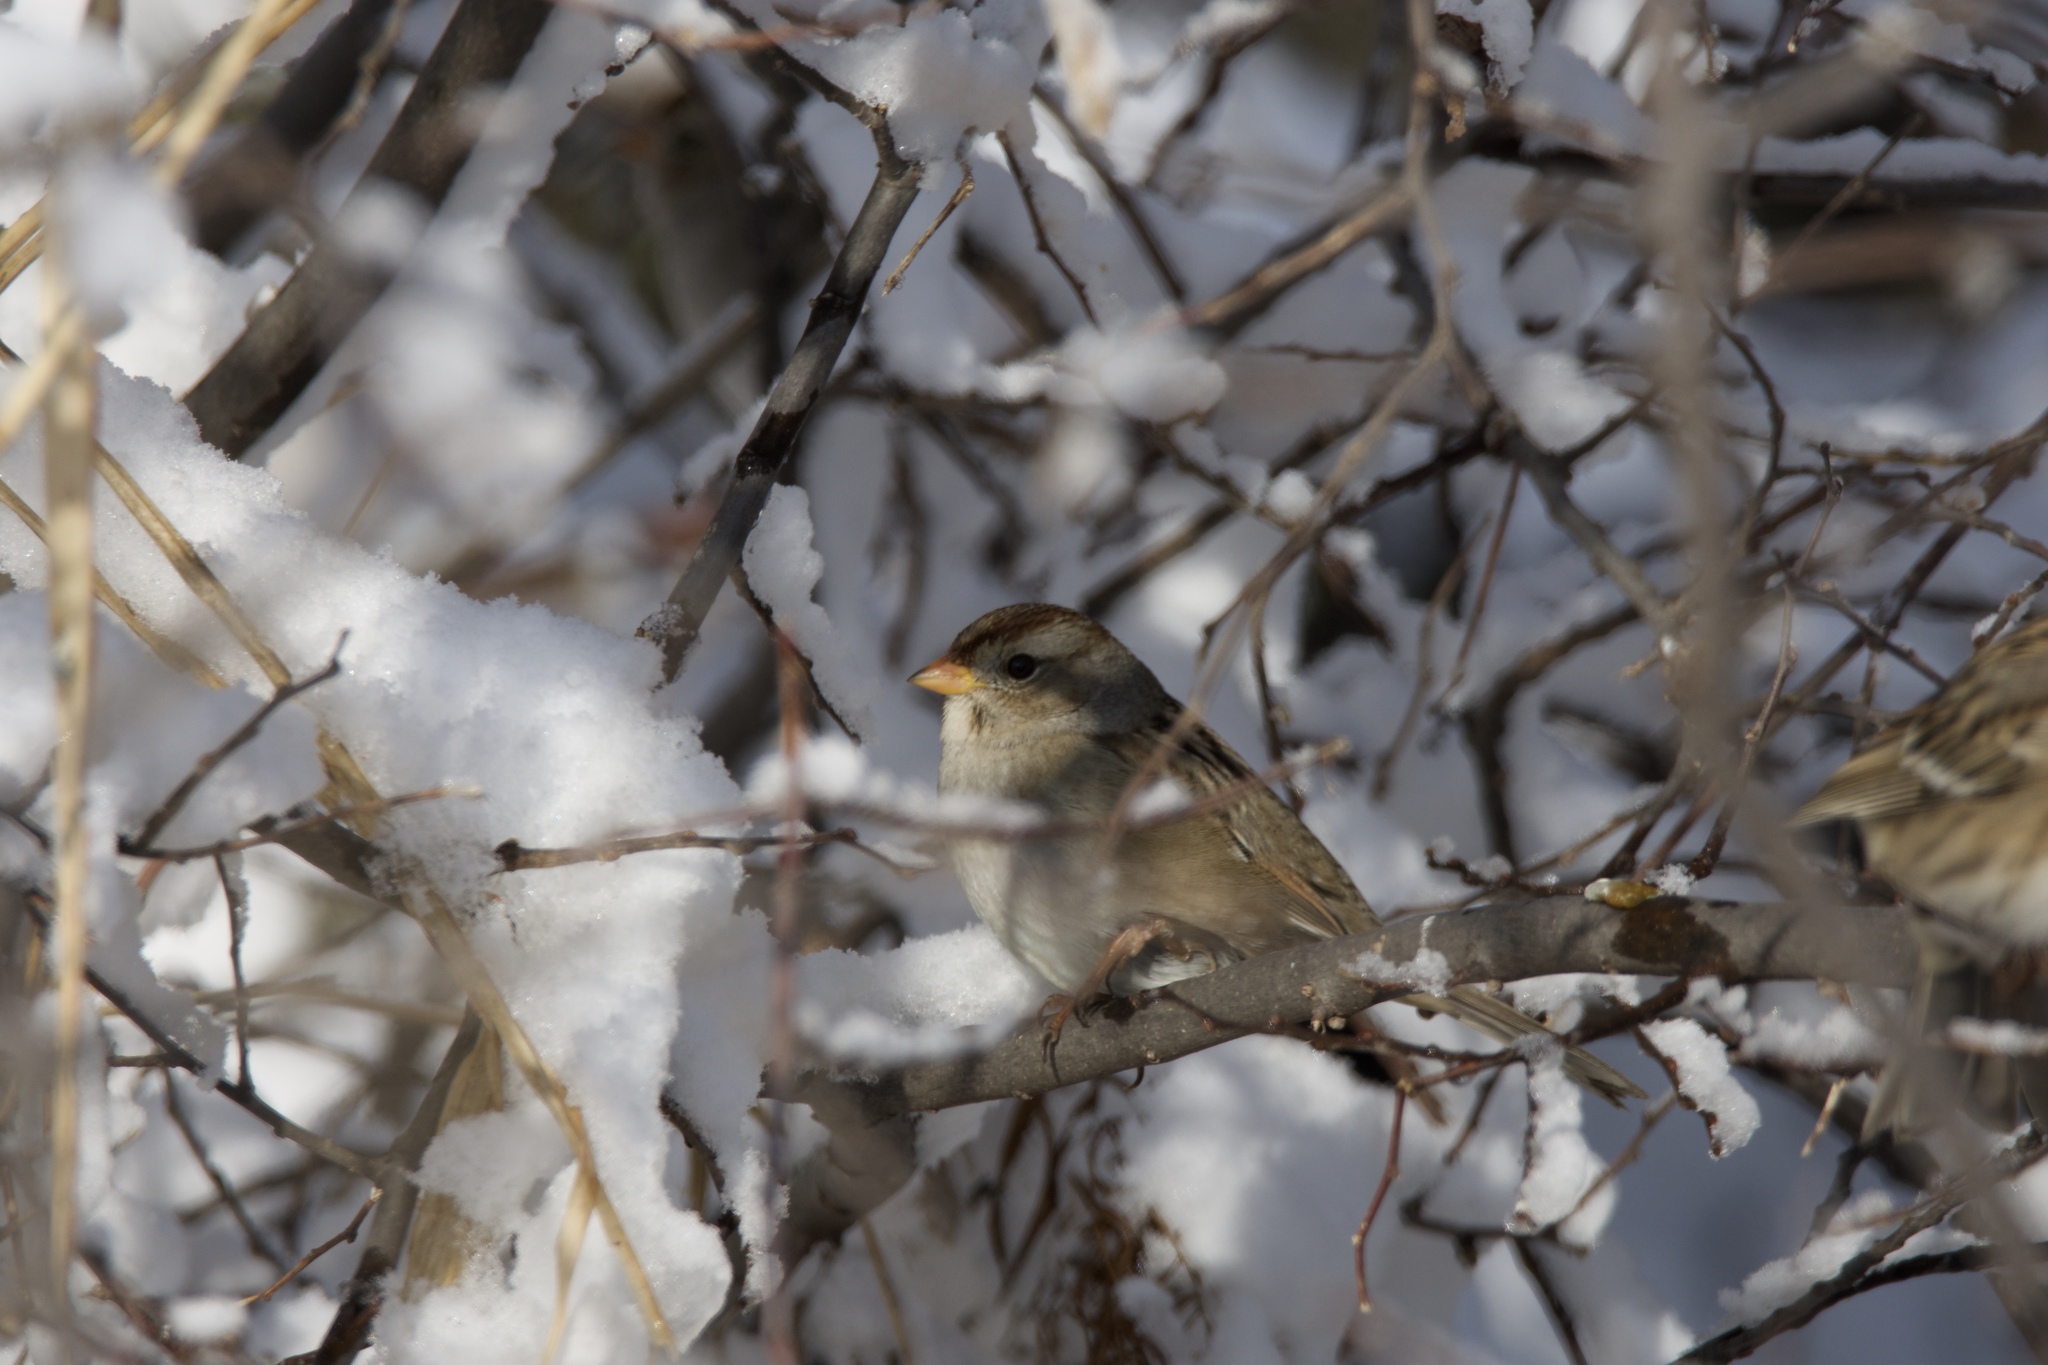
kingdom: Animalia
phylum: Chordata
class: Aves
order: Passeriformes
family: Passerellidae
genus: Zonotrichia
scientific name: Zonotrichia leucophrys
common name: White-crowned sparrow
